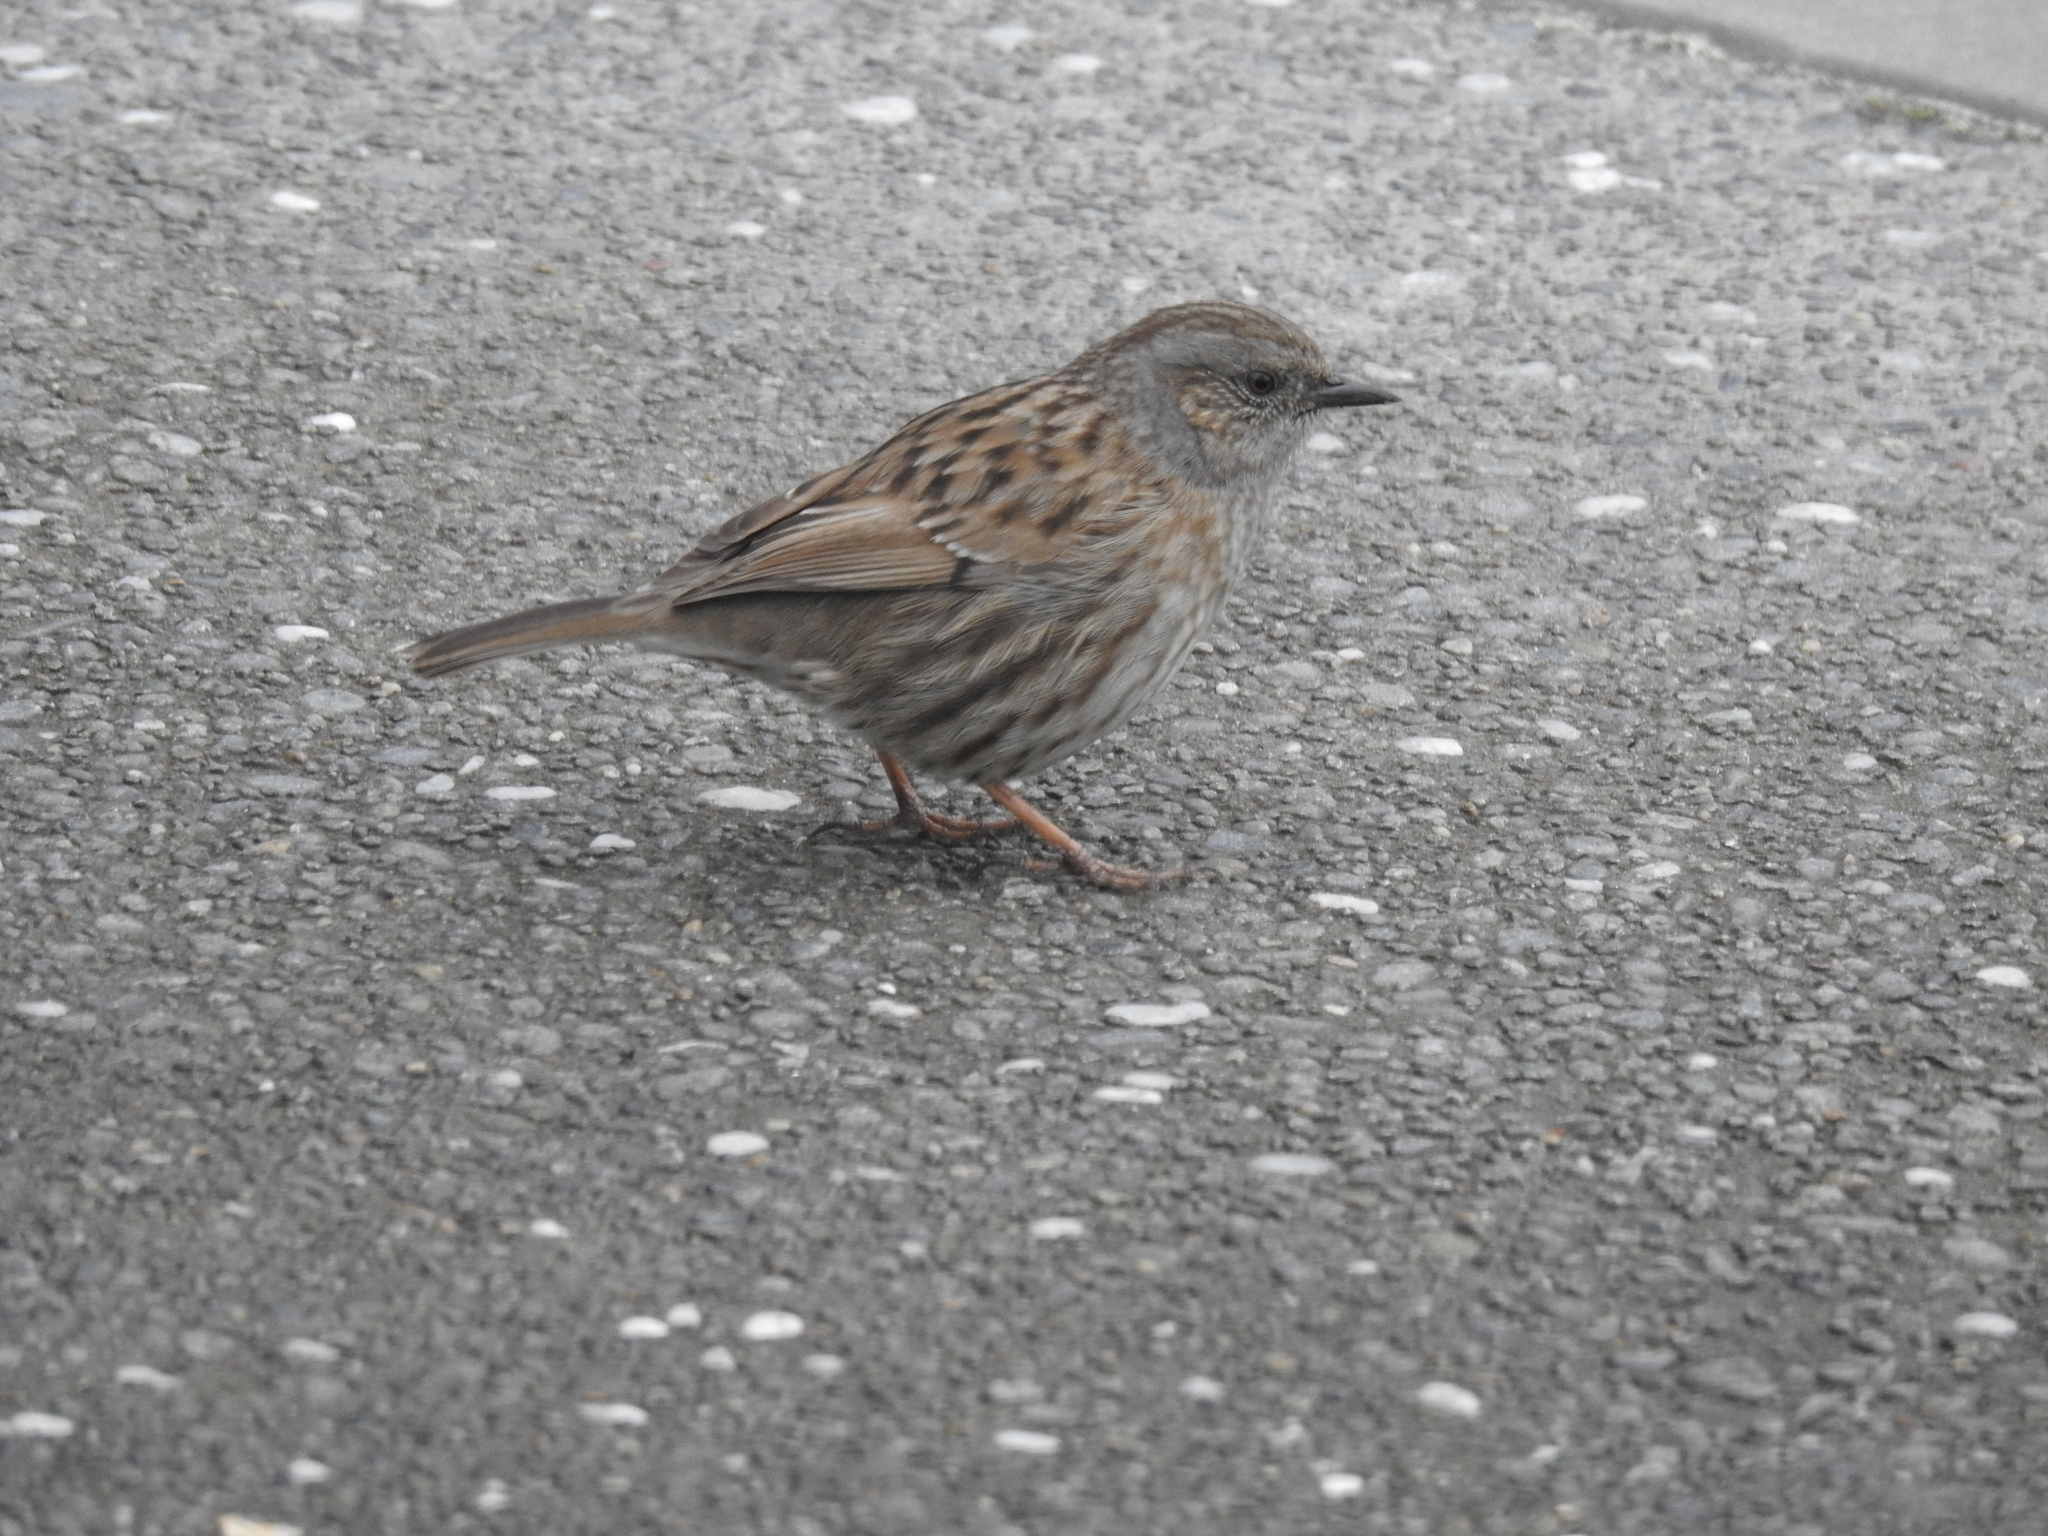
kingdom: Animalia
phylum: Chordata
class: Aves
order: Passeriformes
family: Prunellidae
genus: Prunella
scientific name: Prunella modularis
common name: Dunnock
